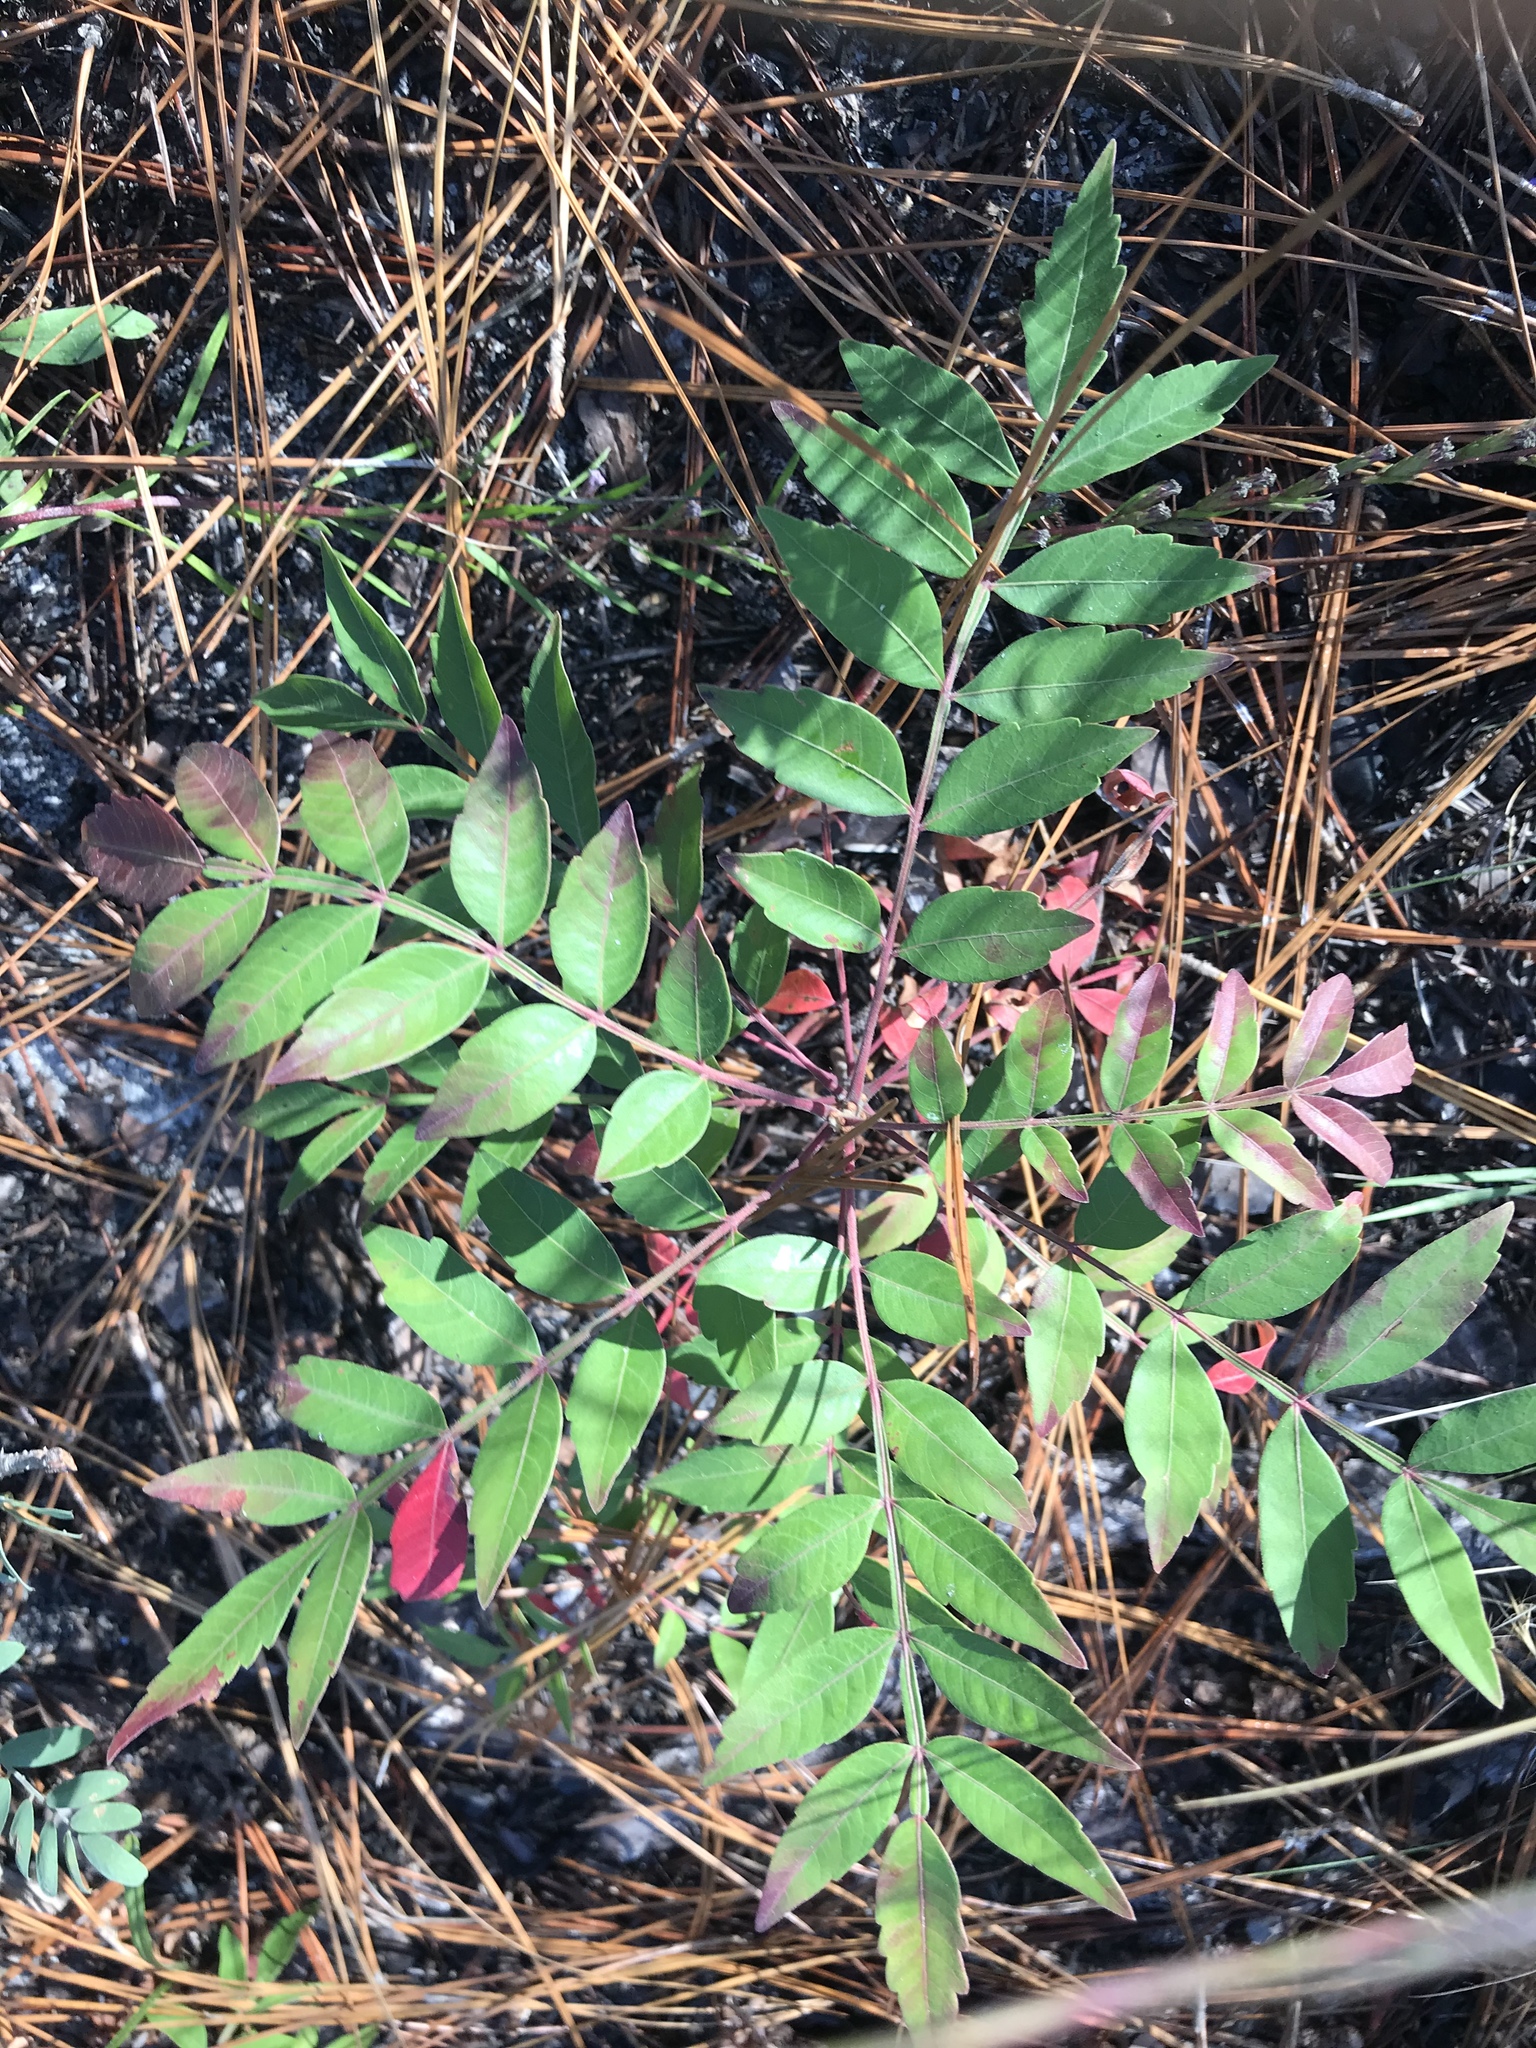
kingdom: Plantae
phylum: Tracheophyta
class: Magnoliopsida
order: Sapindales
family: Anacardiaceae
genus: Rhus
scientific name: Rhus copallina
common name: Shining sumac
